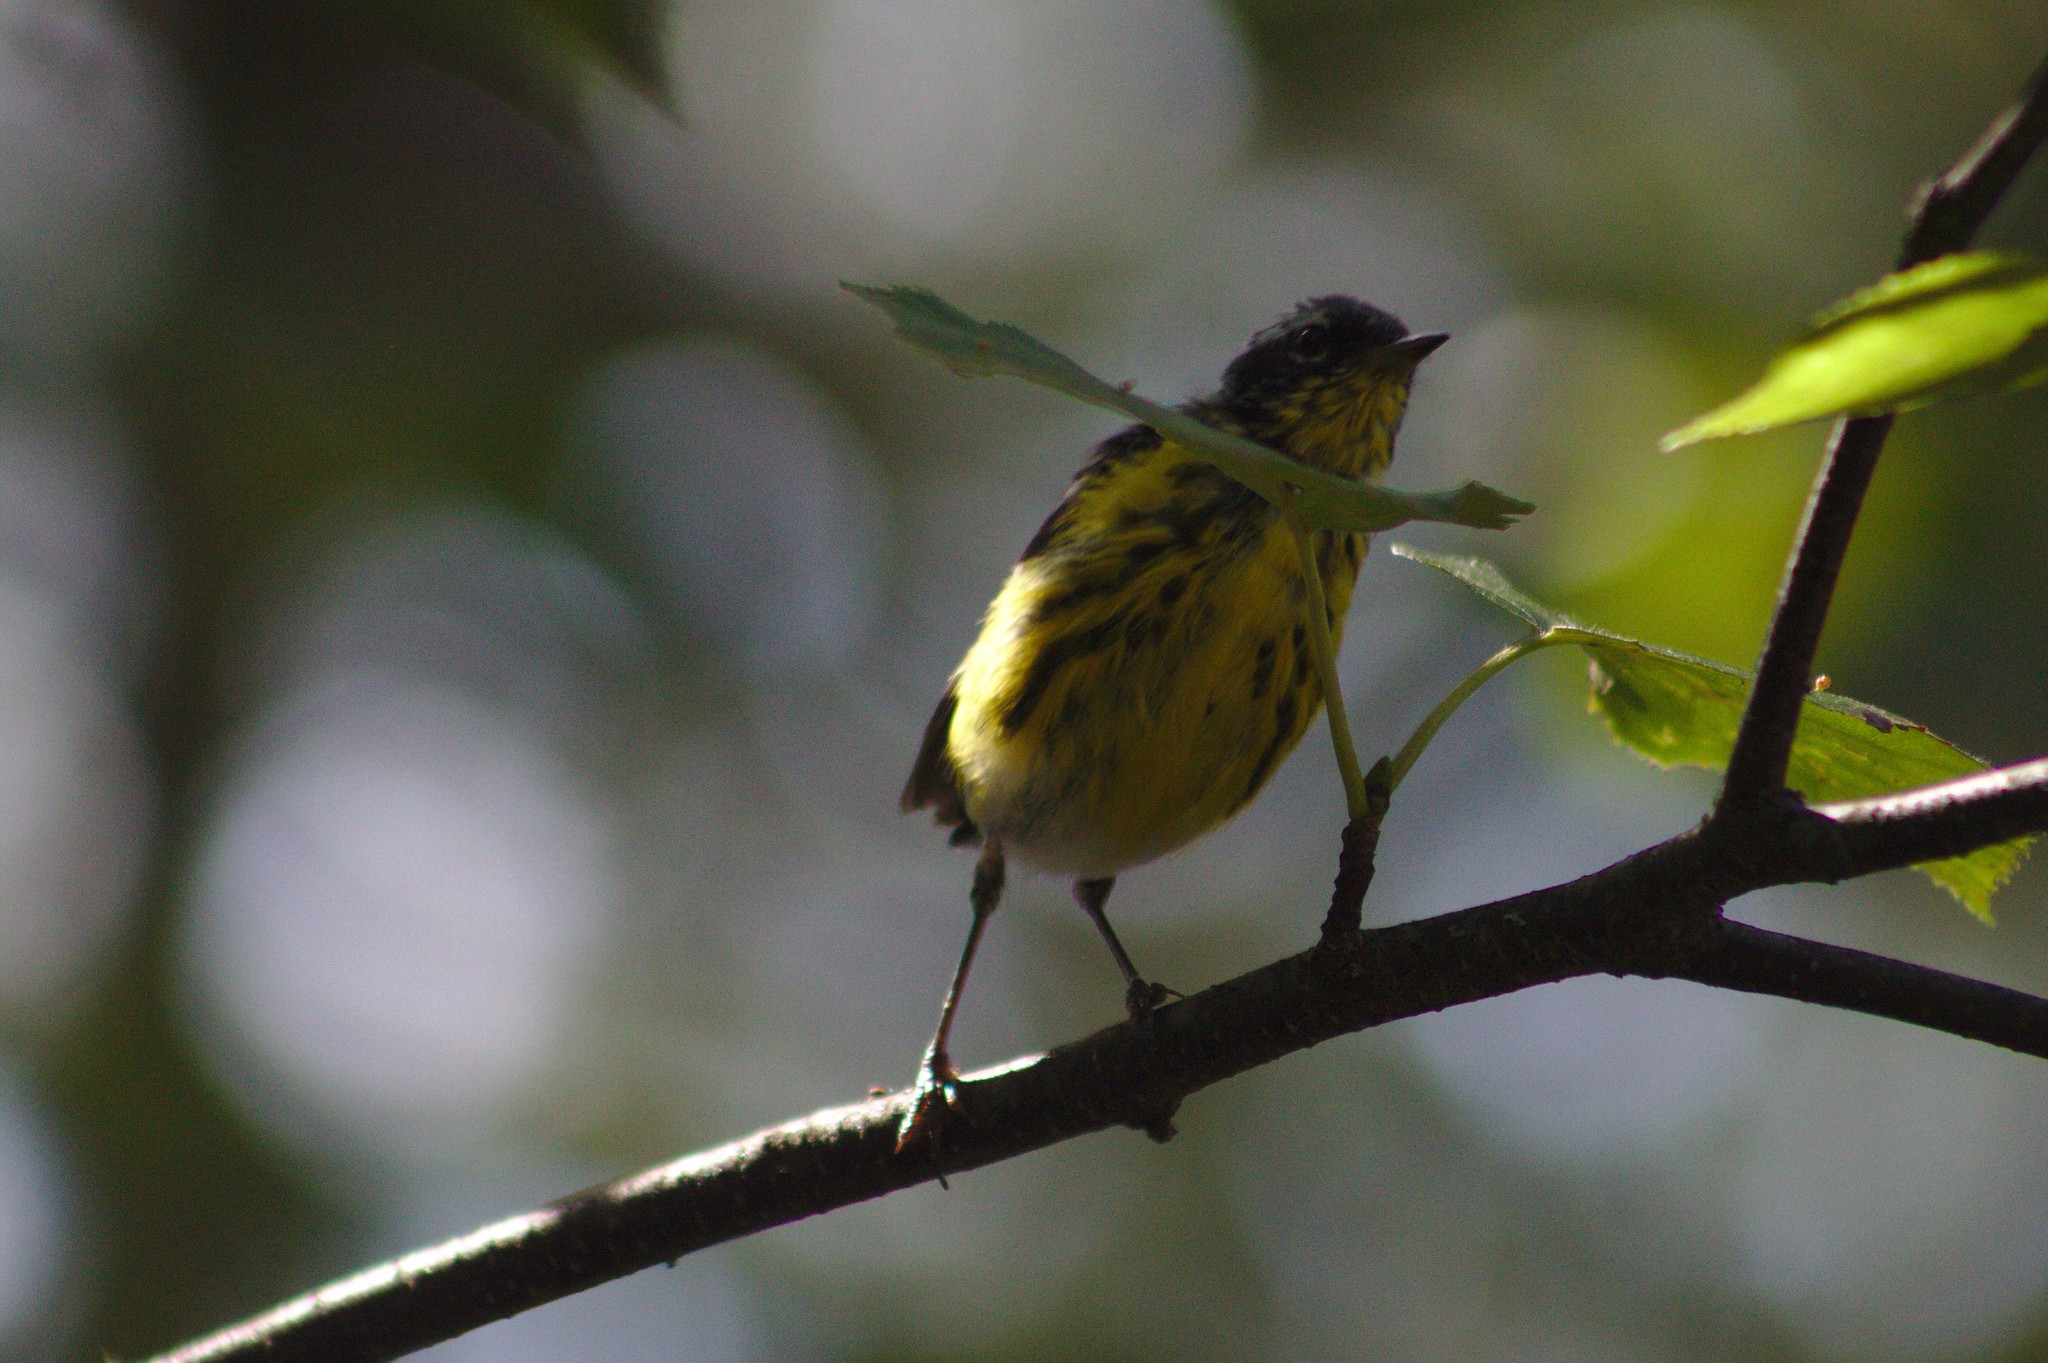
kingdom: Animalia
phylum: Chordata
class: Aves
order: Passeriformes
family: Parulidae
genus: Setophaga
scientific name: Setophaga magnolia
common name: Magnolia warbler
